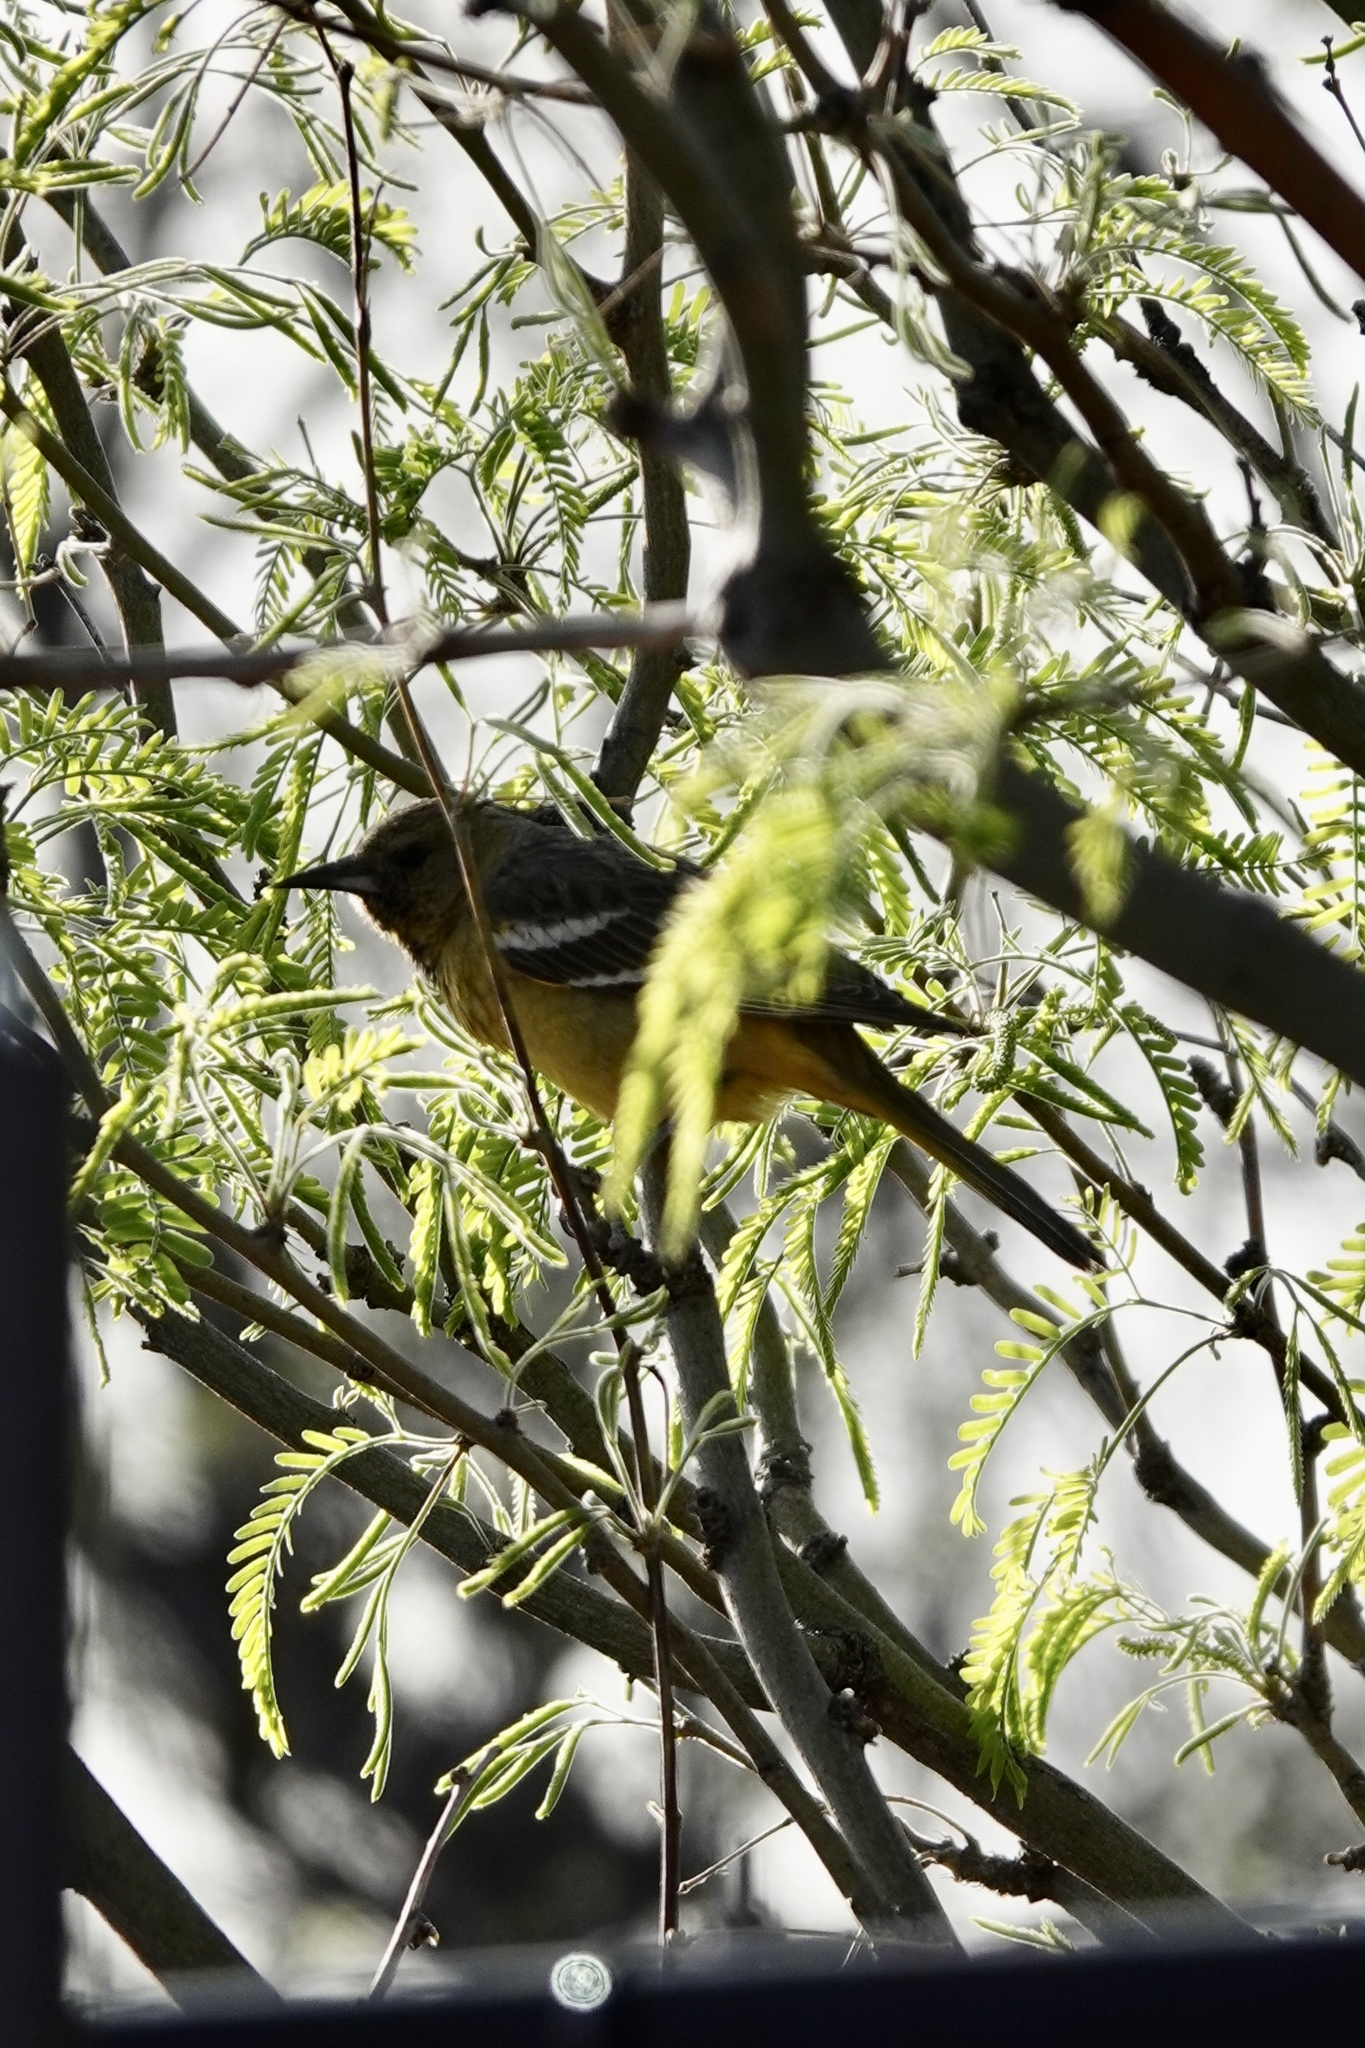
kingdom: Animalia
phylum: Chordata
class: Aves
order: Passeriformes
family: Icteridae
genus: Icterus
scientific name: Icterus parisorum
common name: Scott's oriole
